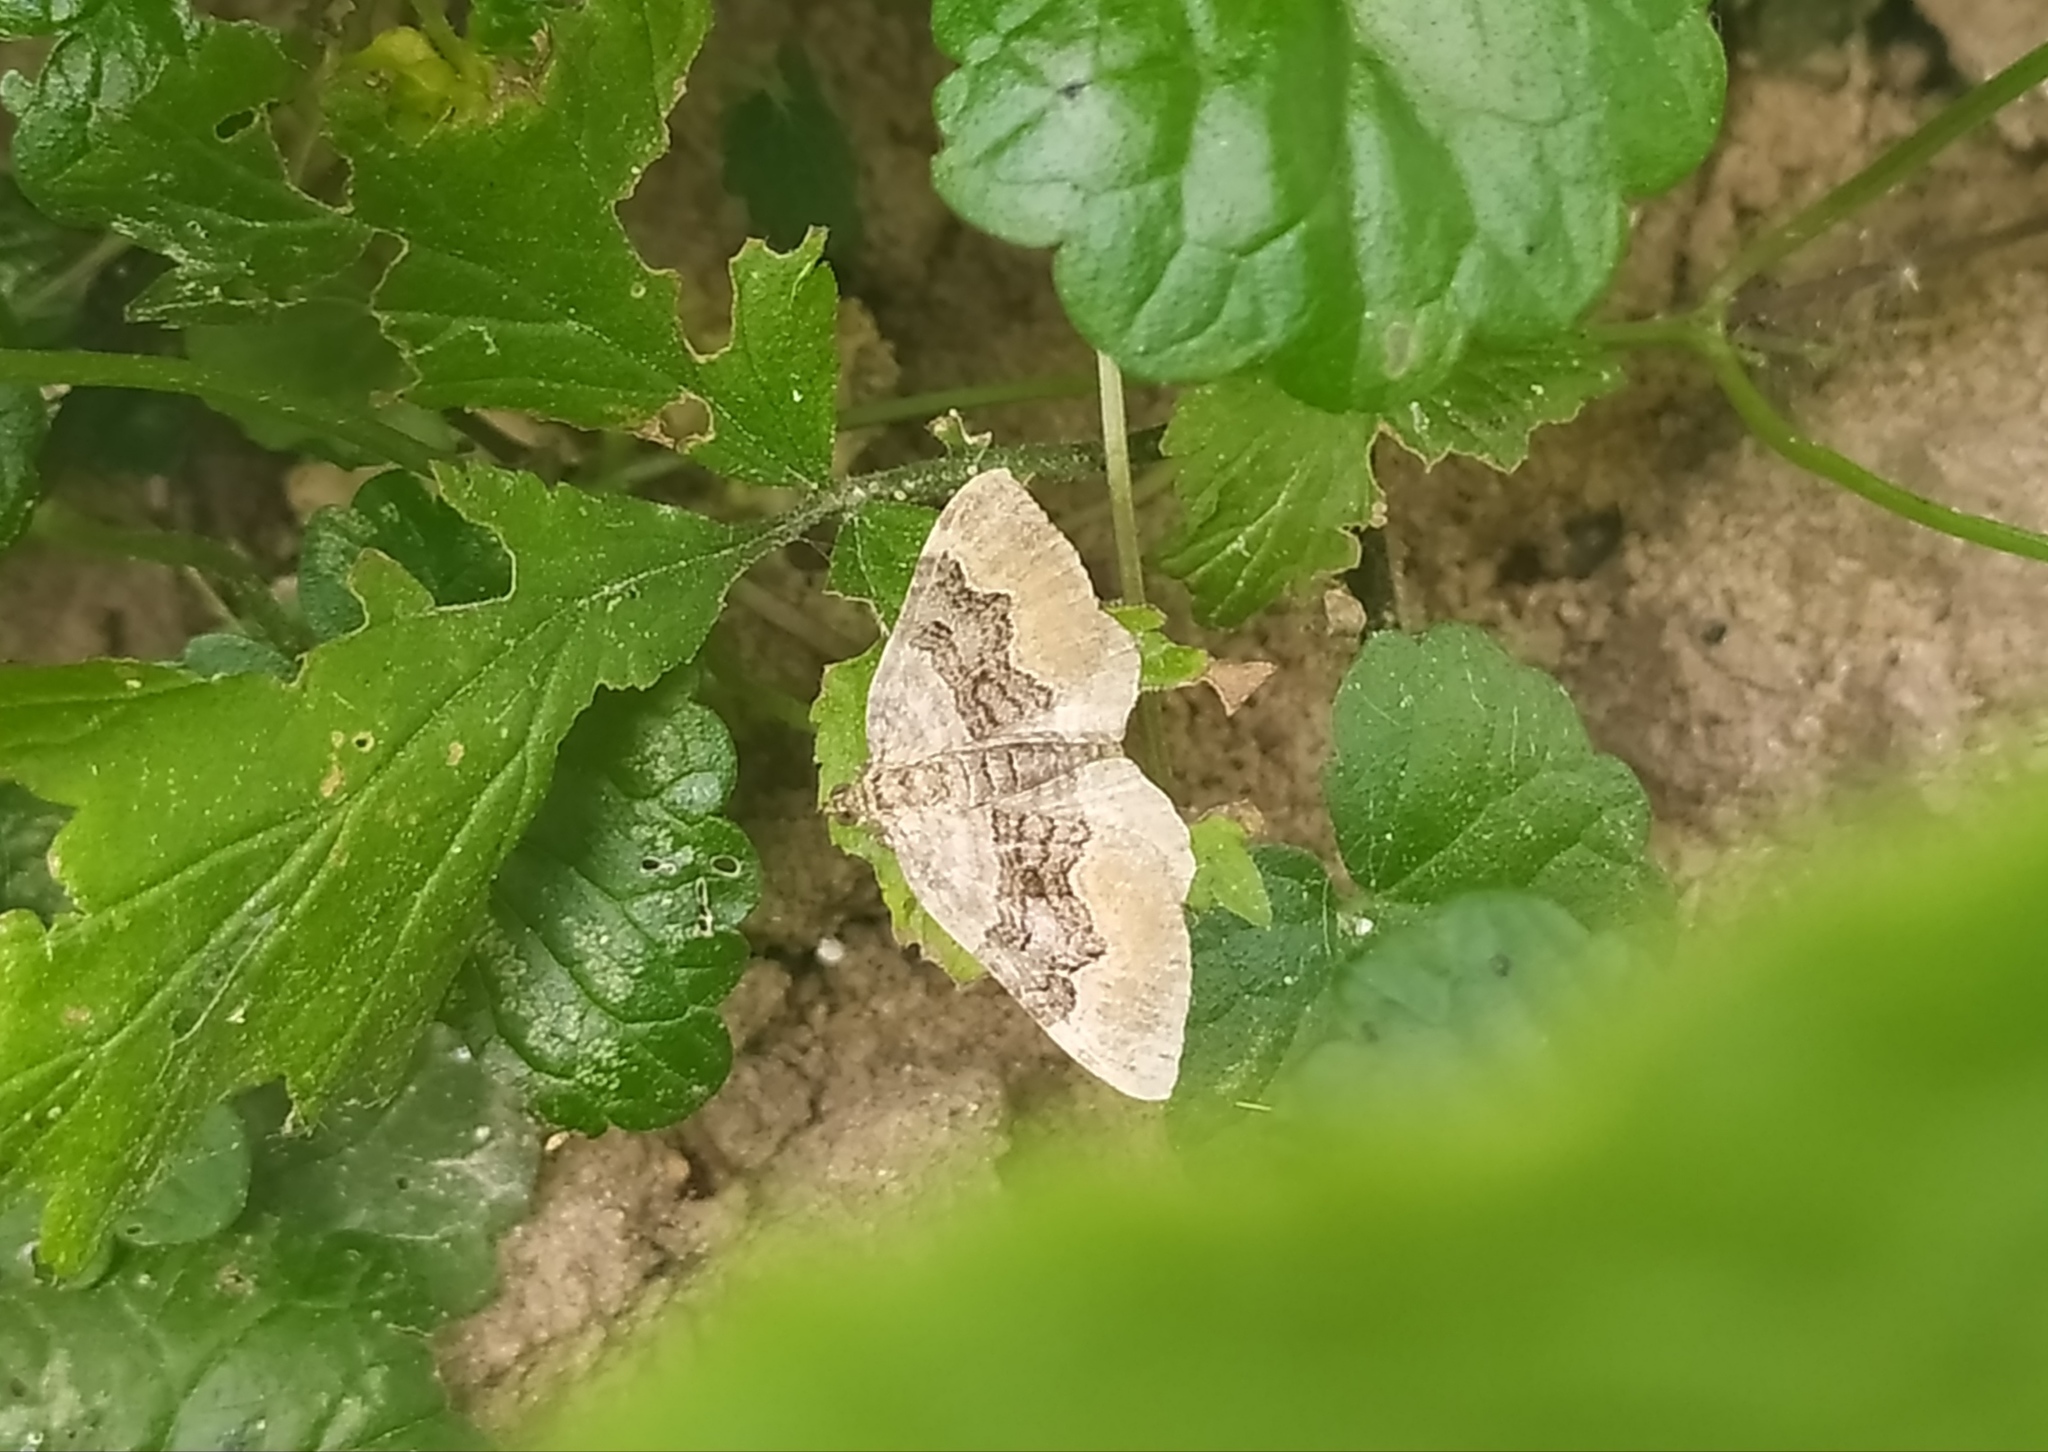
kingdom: Animalia
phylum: Arthropoda
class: Insecta
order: Lepidoptera
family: Geometridae
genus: Xanthorhoe
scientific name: Xanthorhoe quadrifasiata
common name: Large twin-spot carpet
